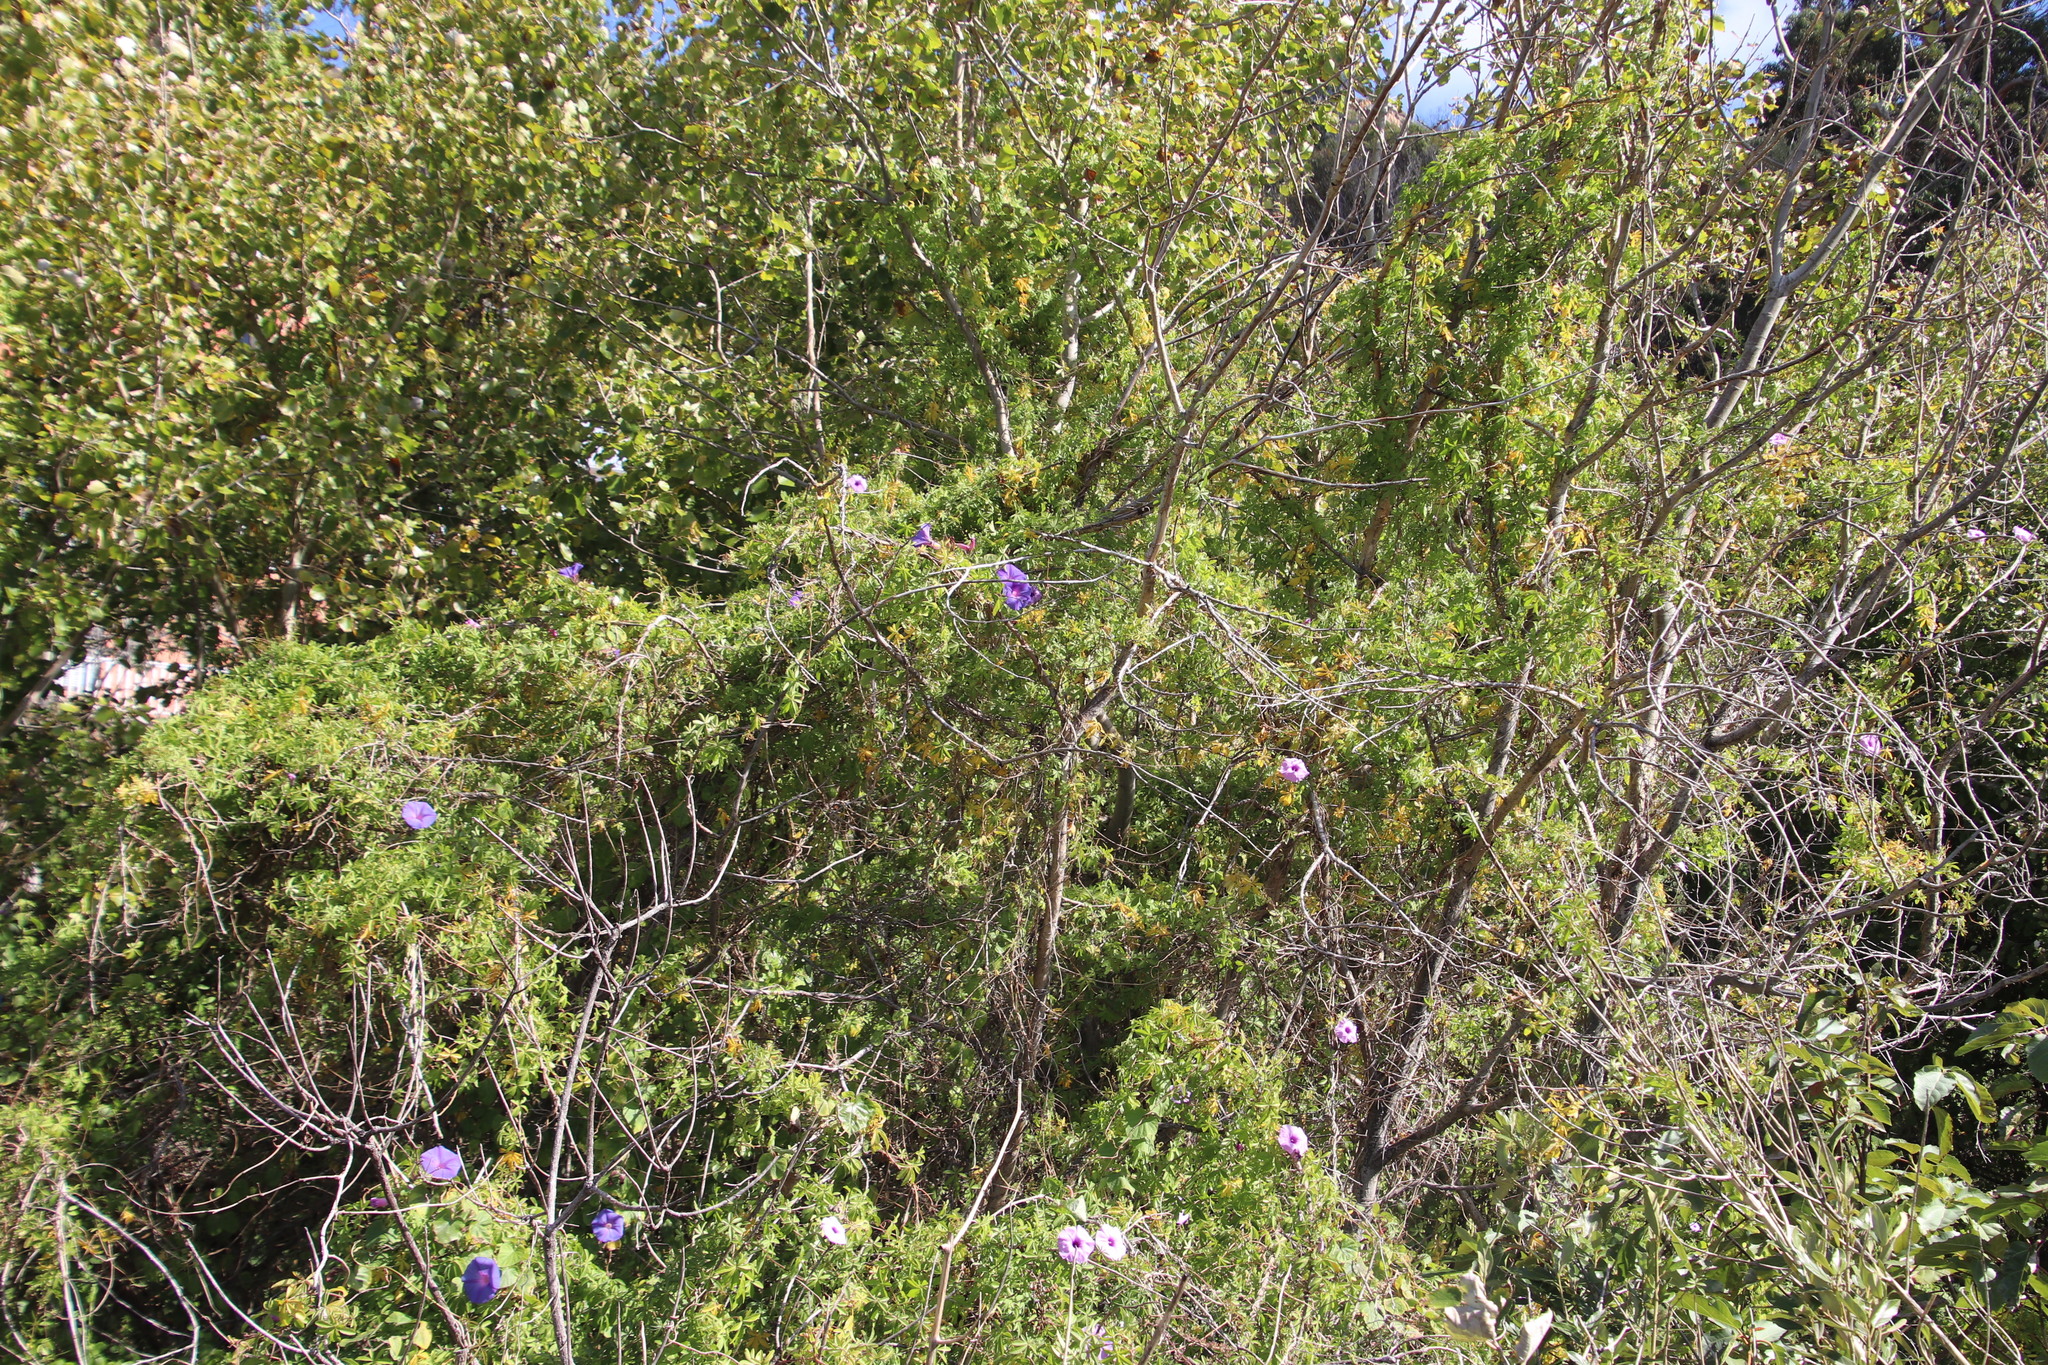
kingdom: Plantae
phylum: Tracheophyta
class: Magnoliopsida
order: Solanales
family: Convolvulaceae
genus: Ipomoea
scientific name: Ipomoea indica
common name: Blue dawnflower
